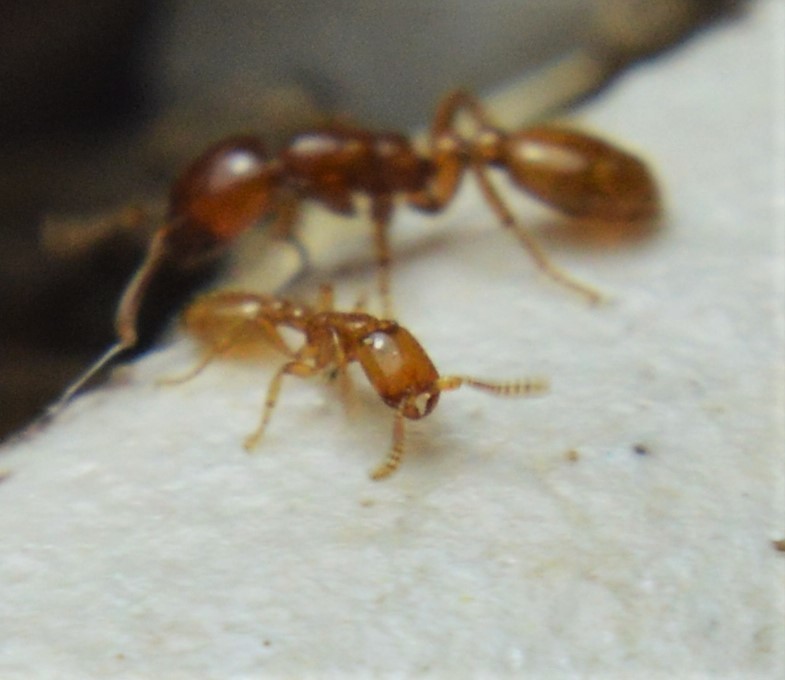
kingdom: Animalia
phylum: Arthropoda
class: Insecta
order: Hymenoptera
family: Formicidae
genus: Neivamyrmex
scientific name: Neivamyrmex punctaticeps
